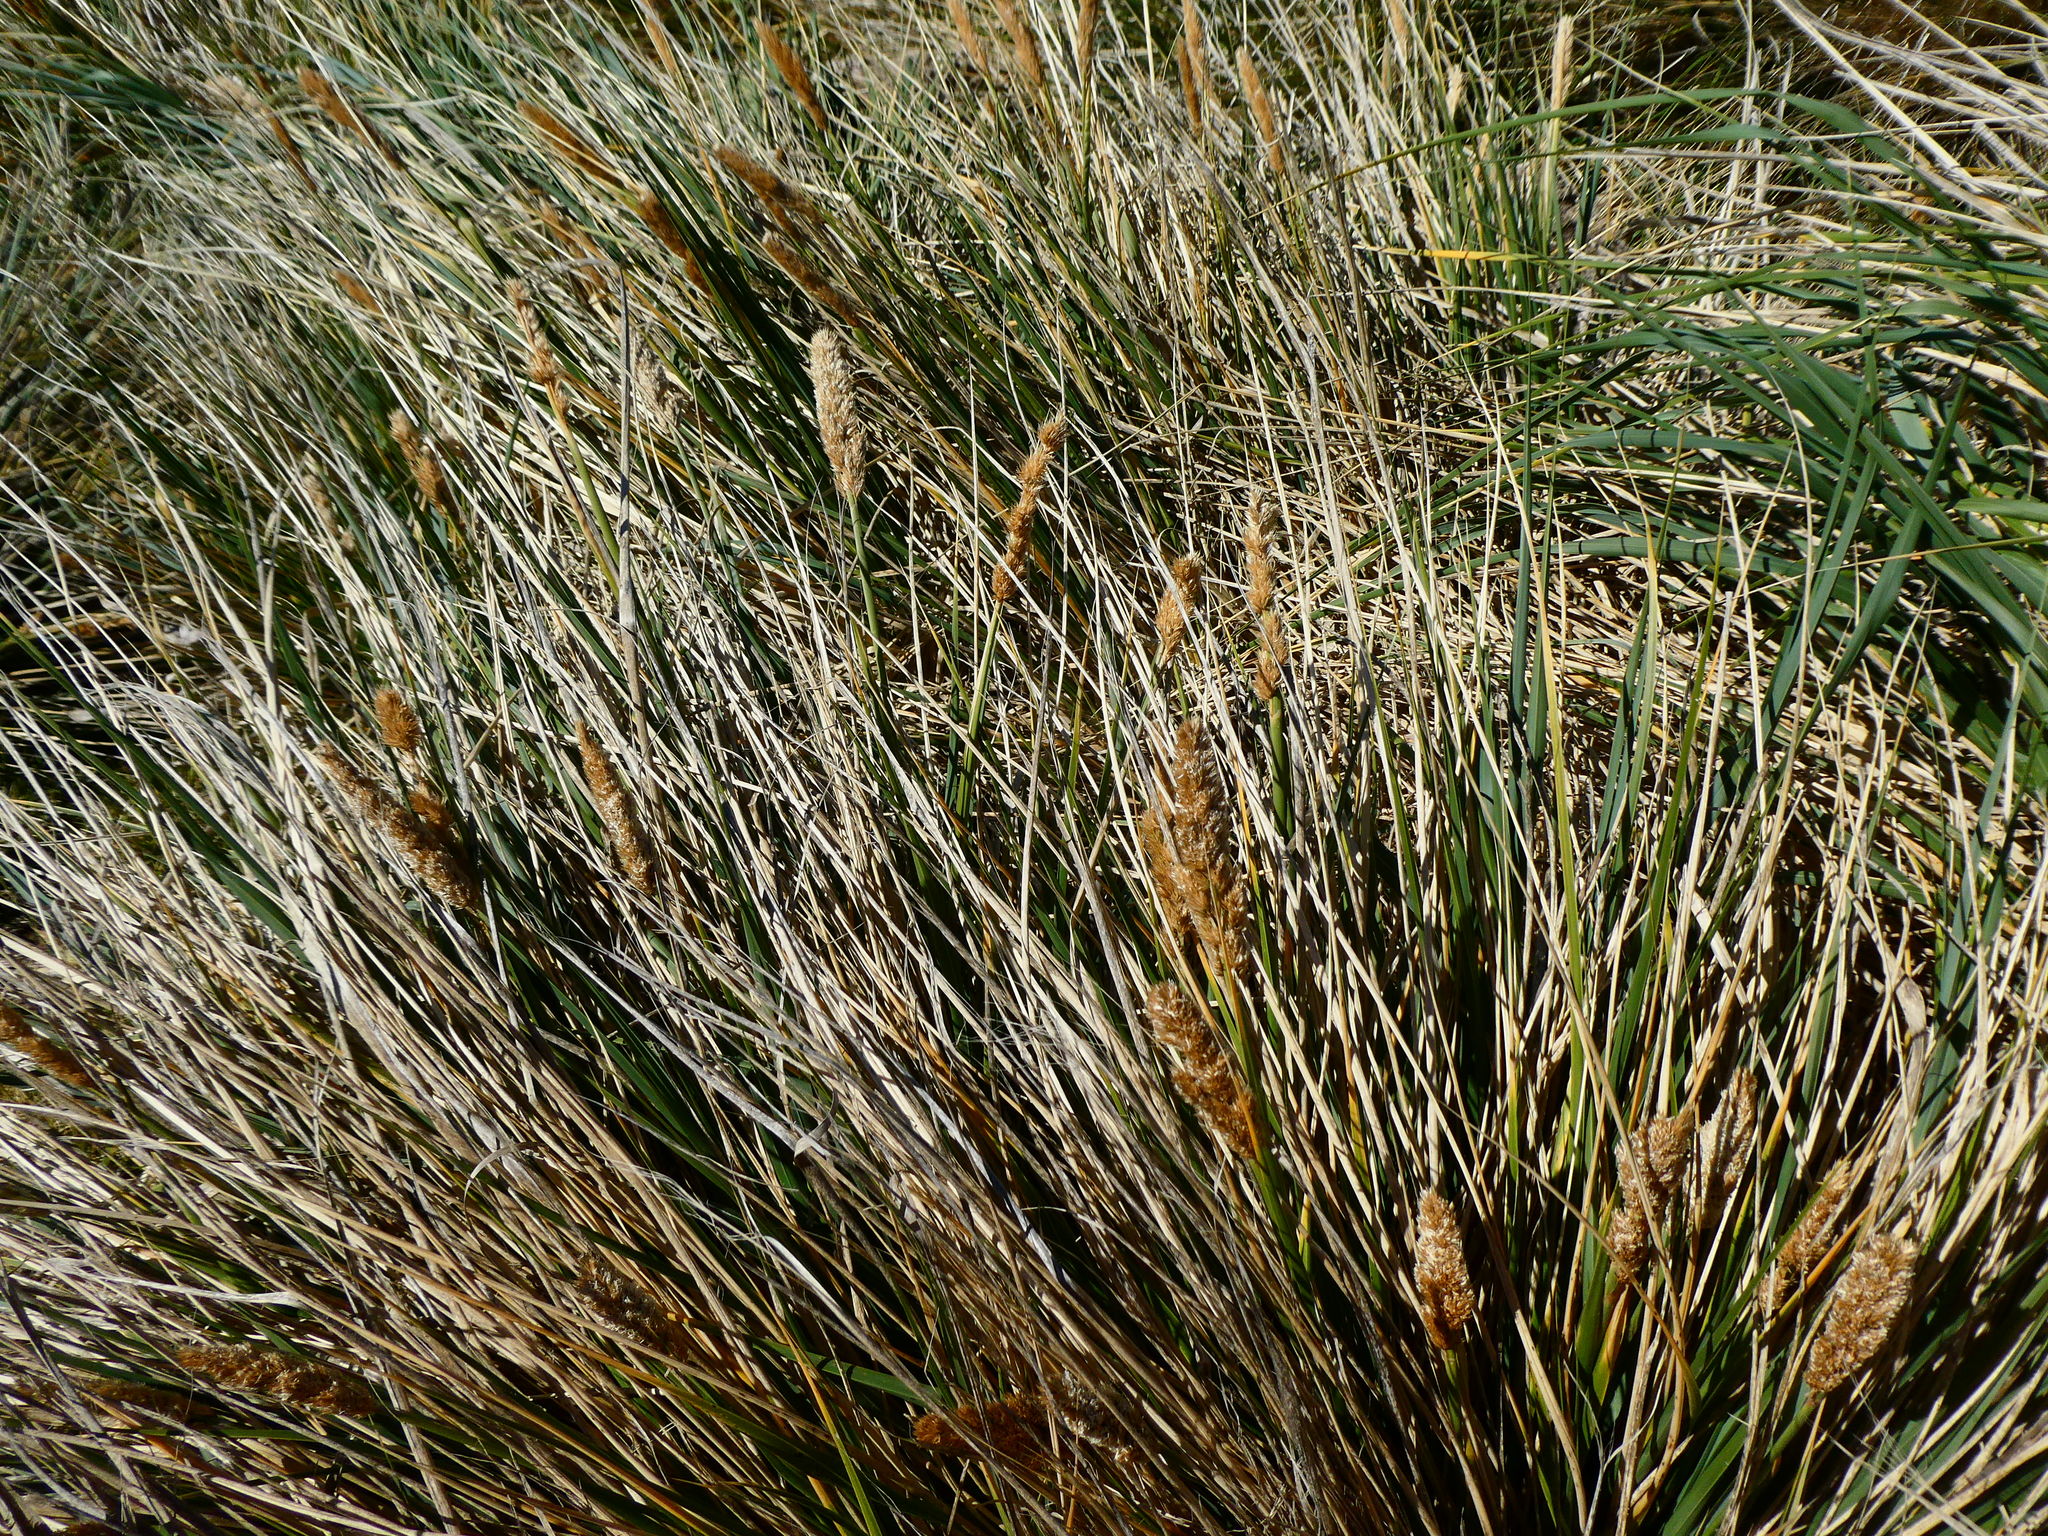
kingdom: Plantae
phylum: Tracheophyta
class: Liliopsida
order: Poales
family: Poaceae
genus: Poa
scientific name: Poa flabellata
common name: Tussac-grass
